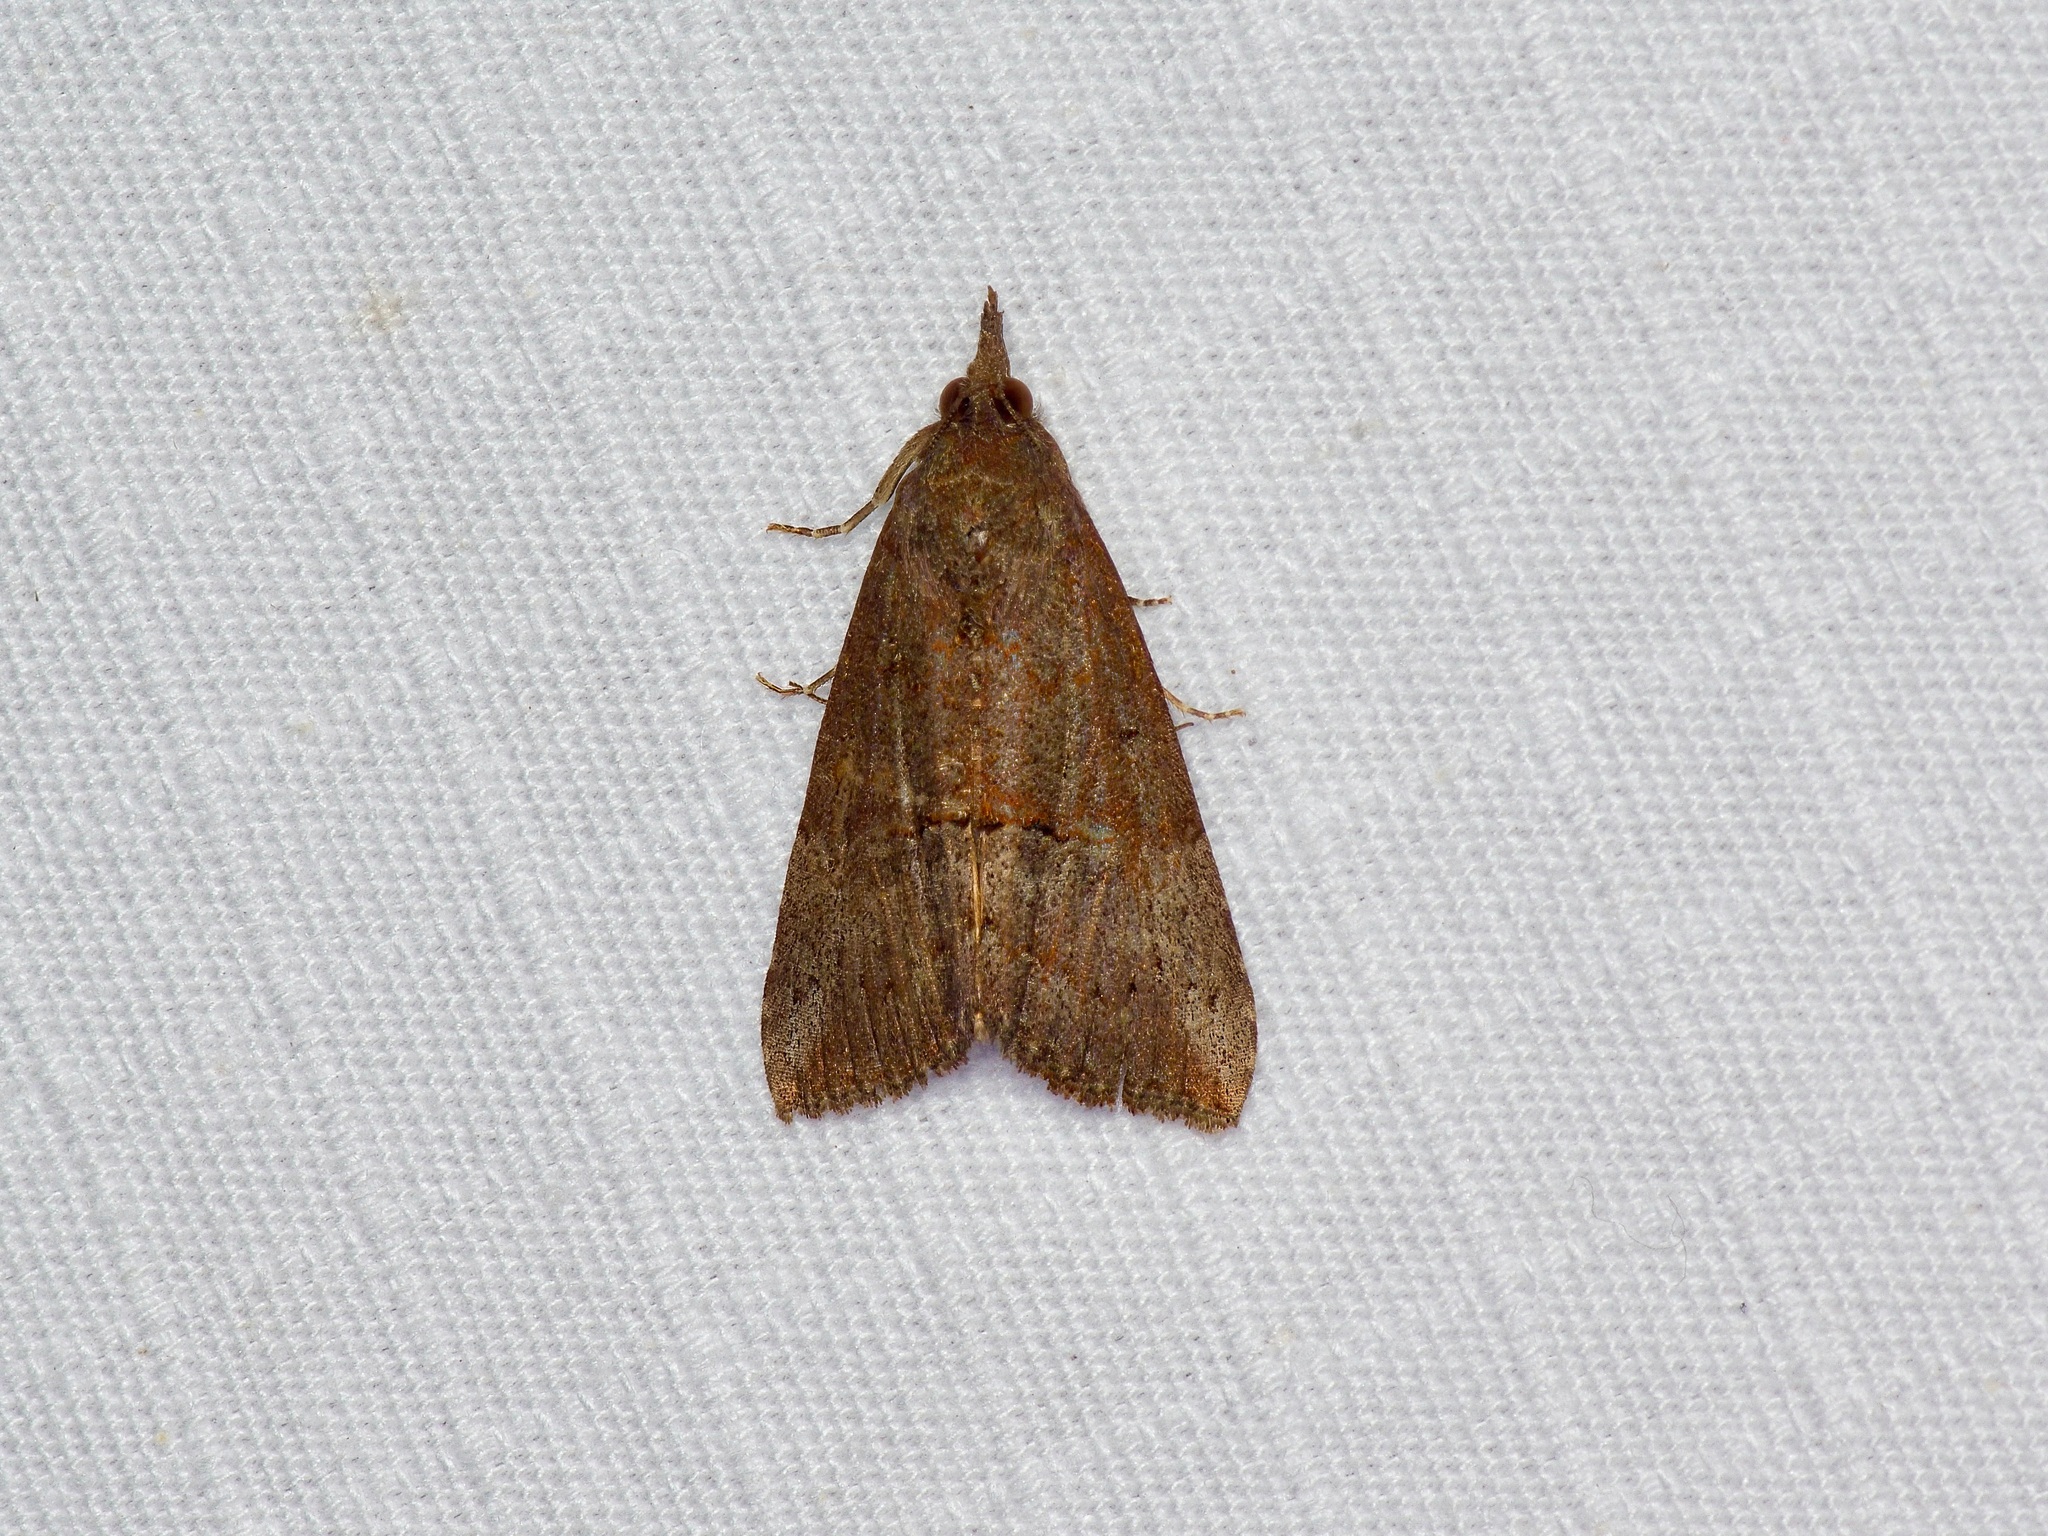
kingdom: Animalia
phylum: Arthropoda
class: Insecta
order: Lepidoptera
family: Erebidae
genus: Hypena
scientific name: Hypena scabra
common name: Green cloverworm
